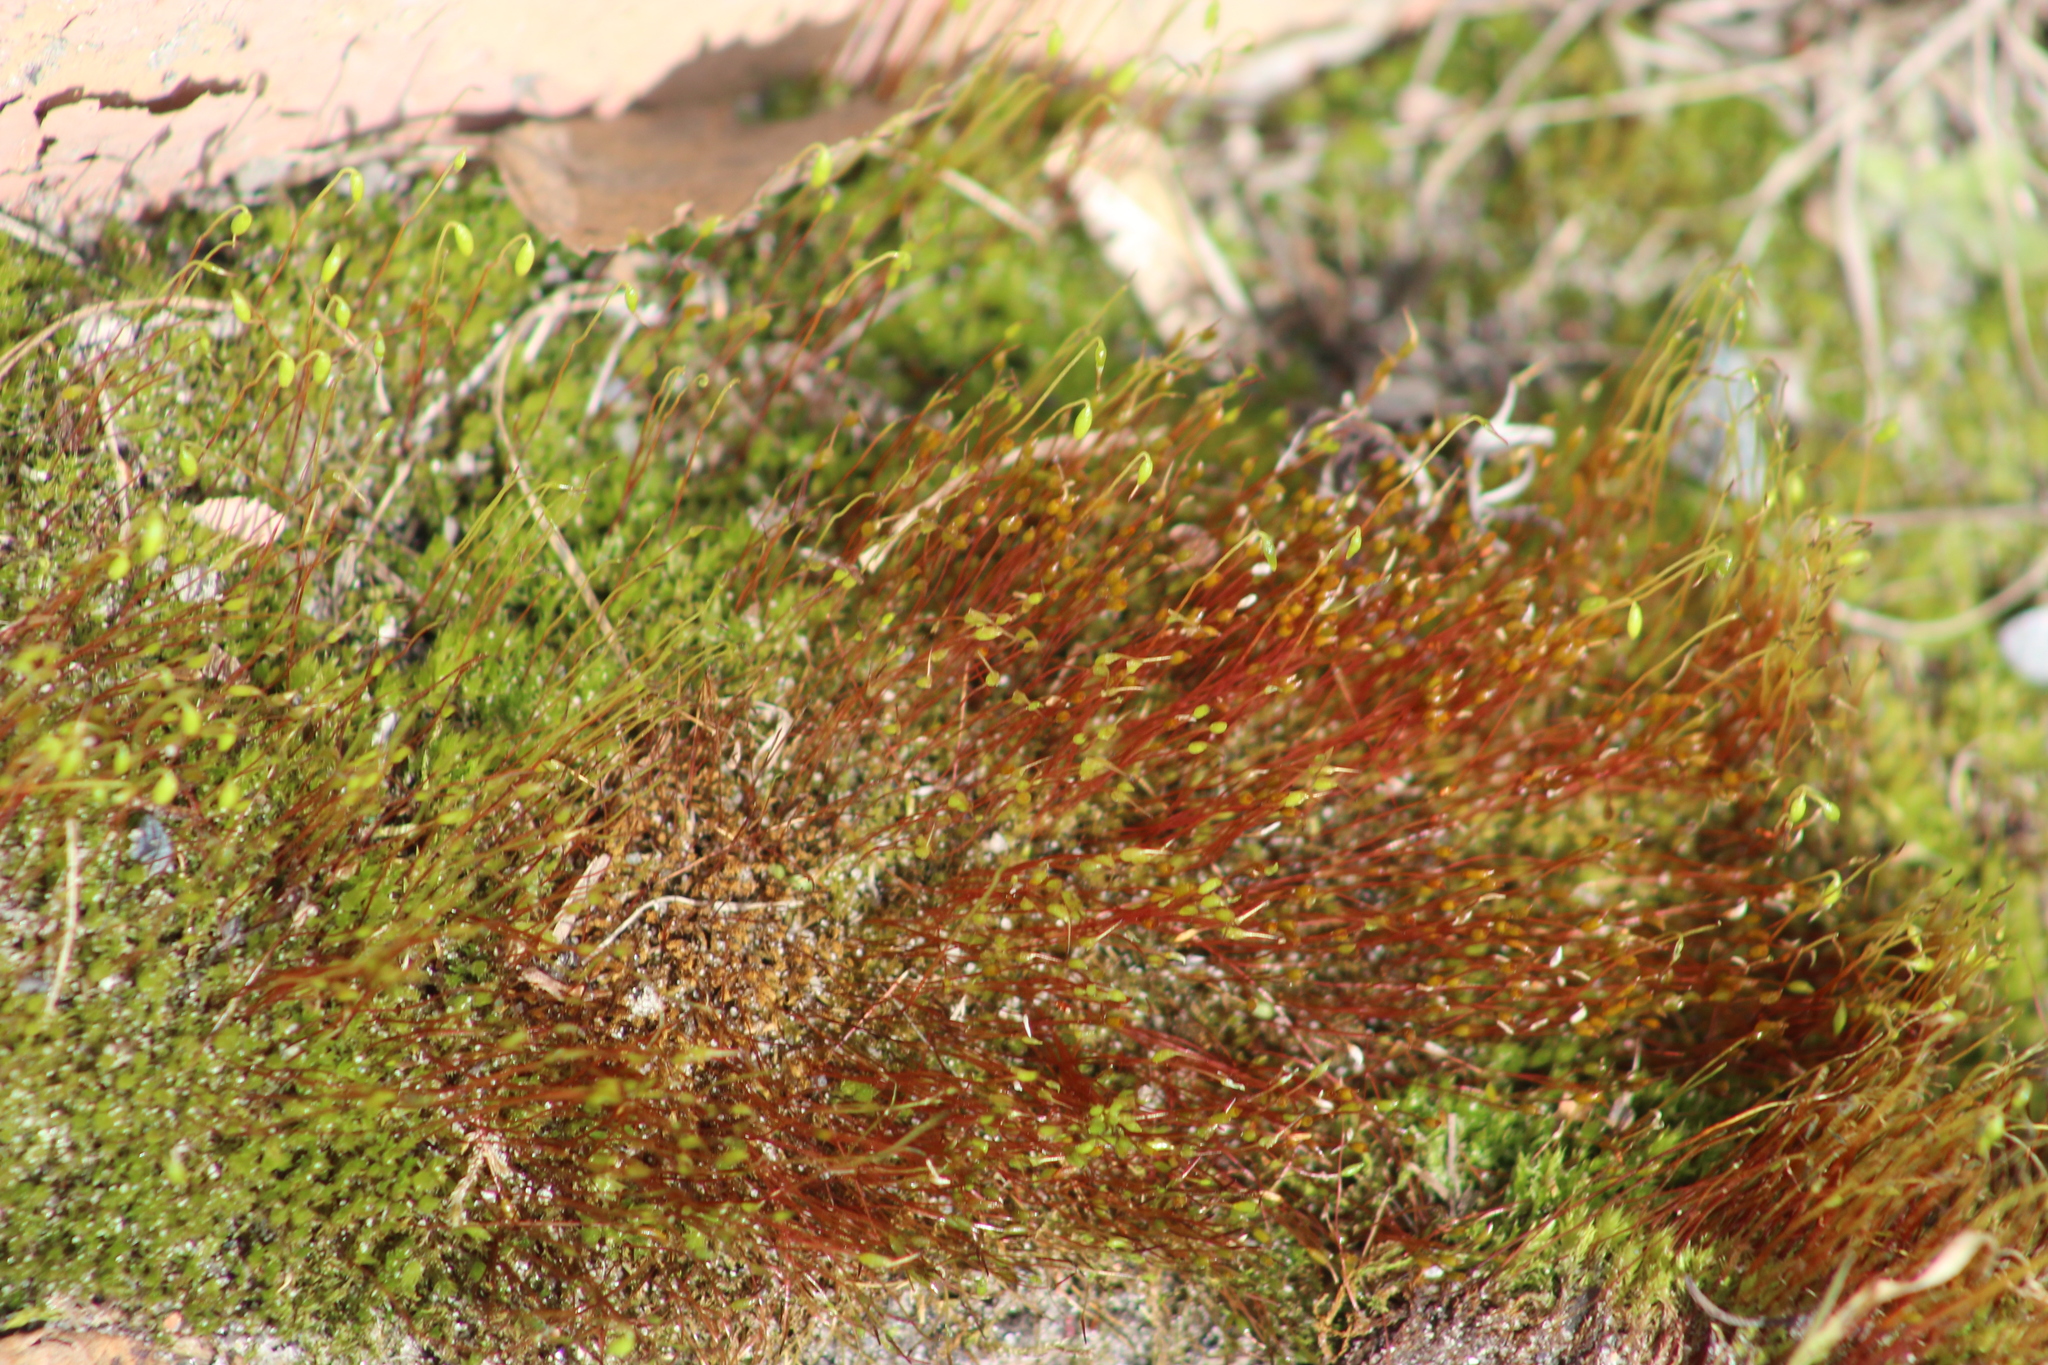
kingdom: Plantae
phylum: Bryophyta
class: Bryopsida
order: Dicranales
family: Ditrichaceae
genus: Ceratodon
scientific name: Ceratodon purpureus
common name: Redshank
